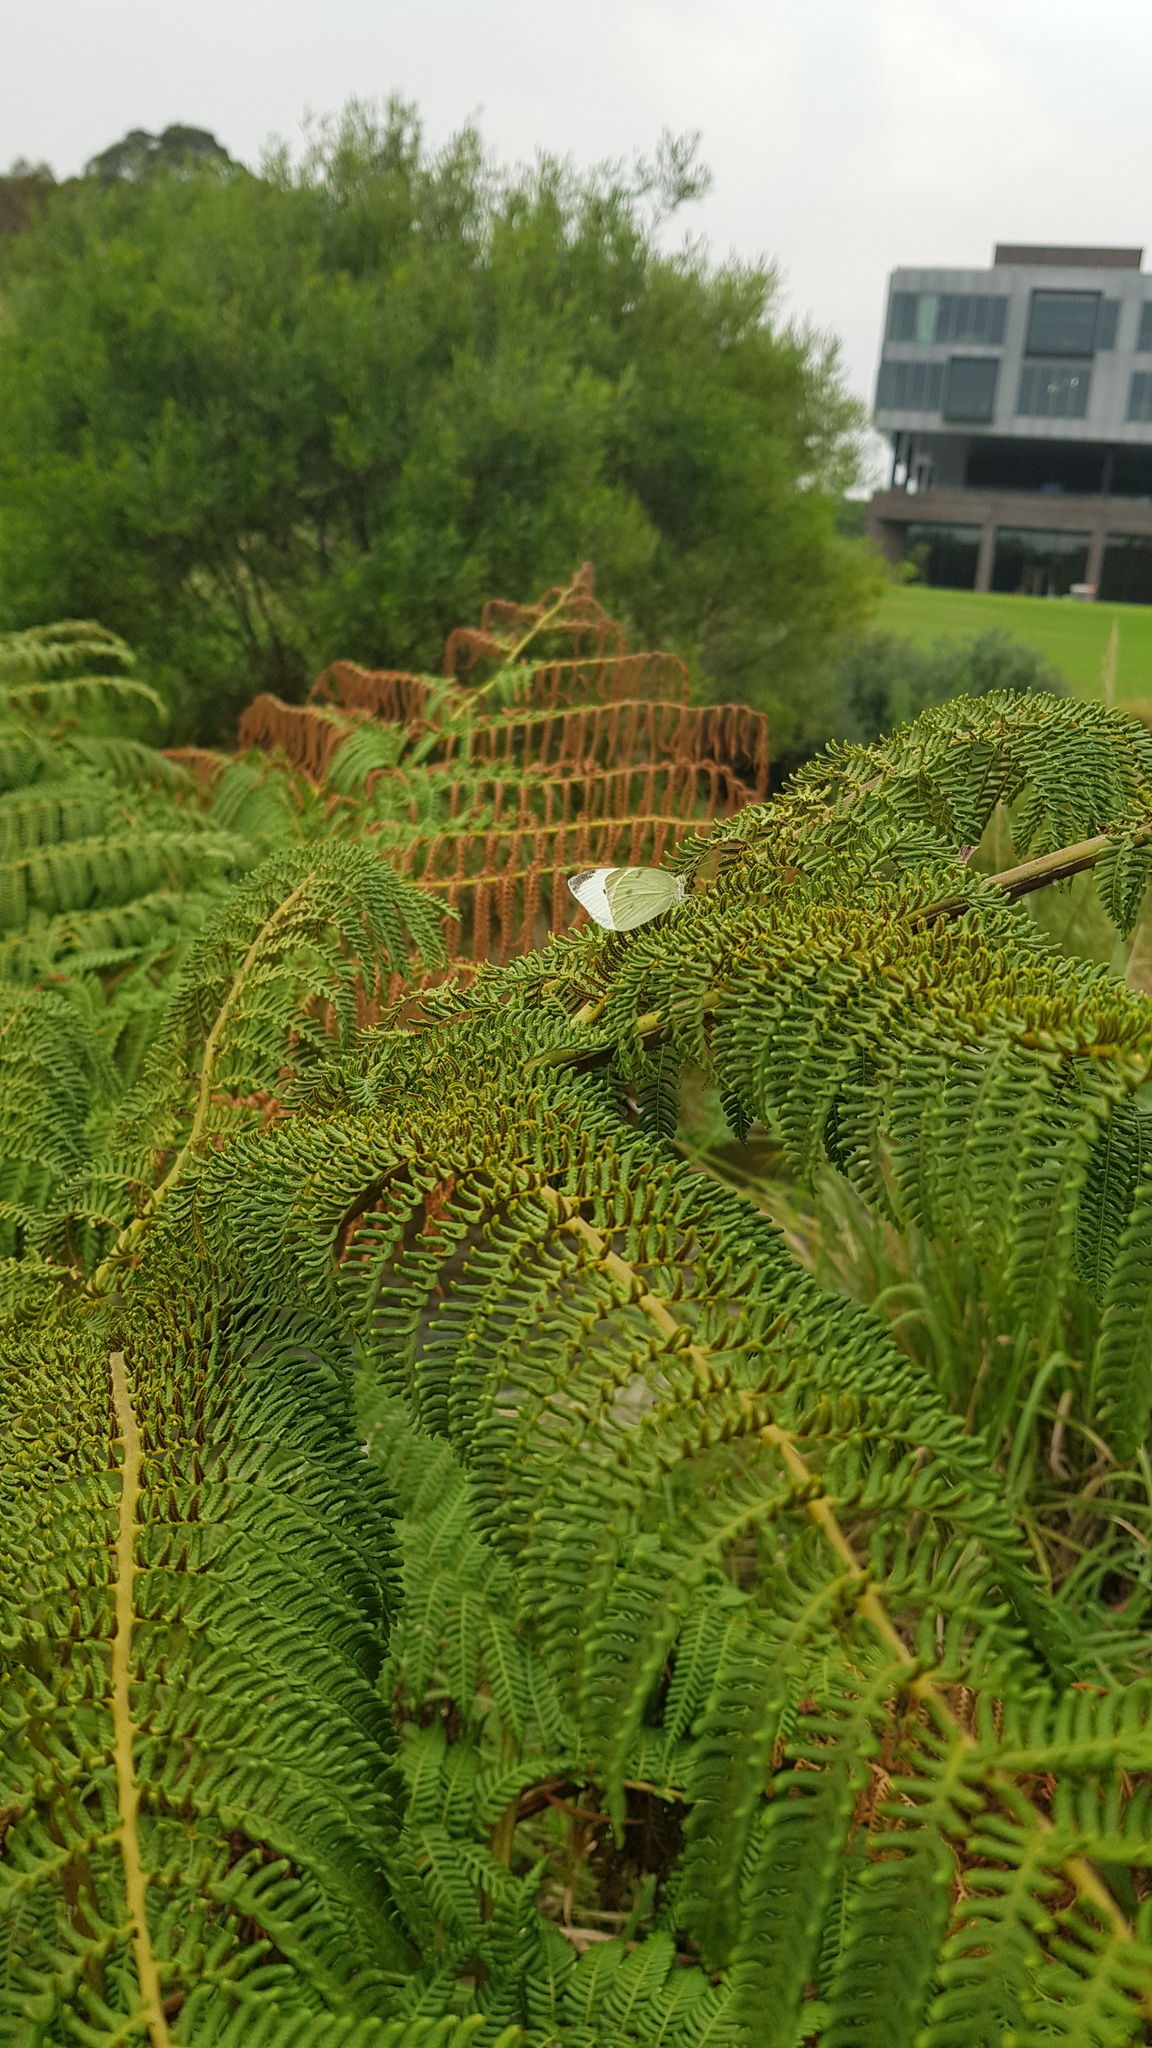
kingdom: Animalia
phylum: Arthropoda
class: Insecta
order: Lepidoptera
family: Pieridae
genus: Pieris
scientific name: Pieris rapae
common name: Small white
